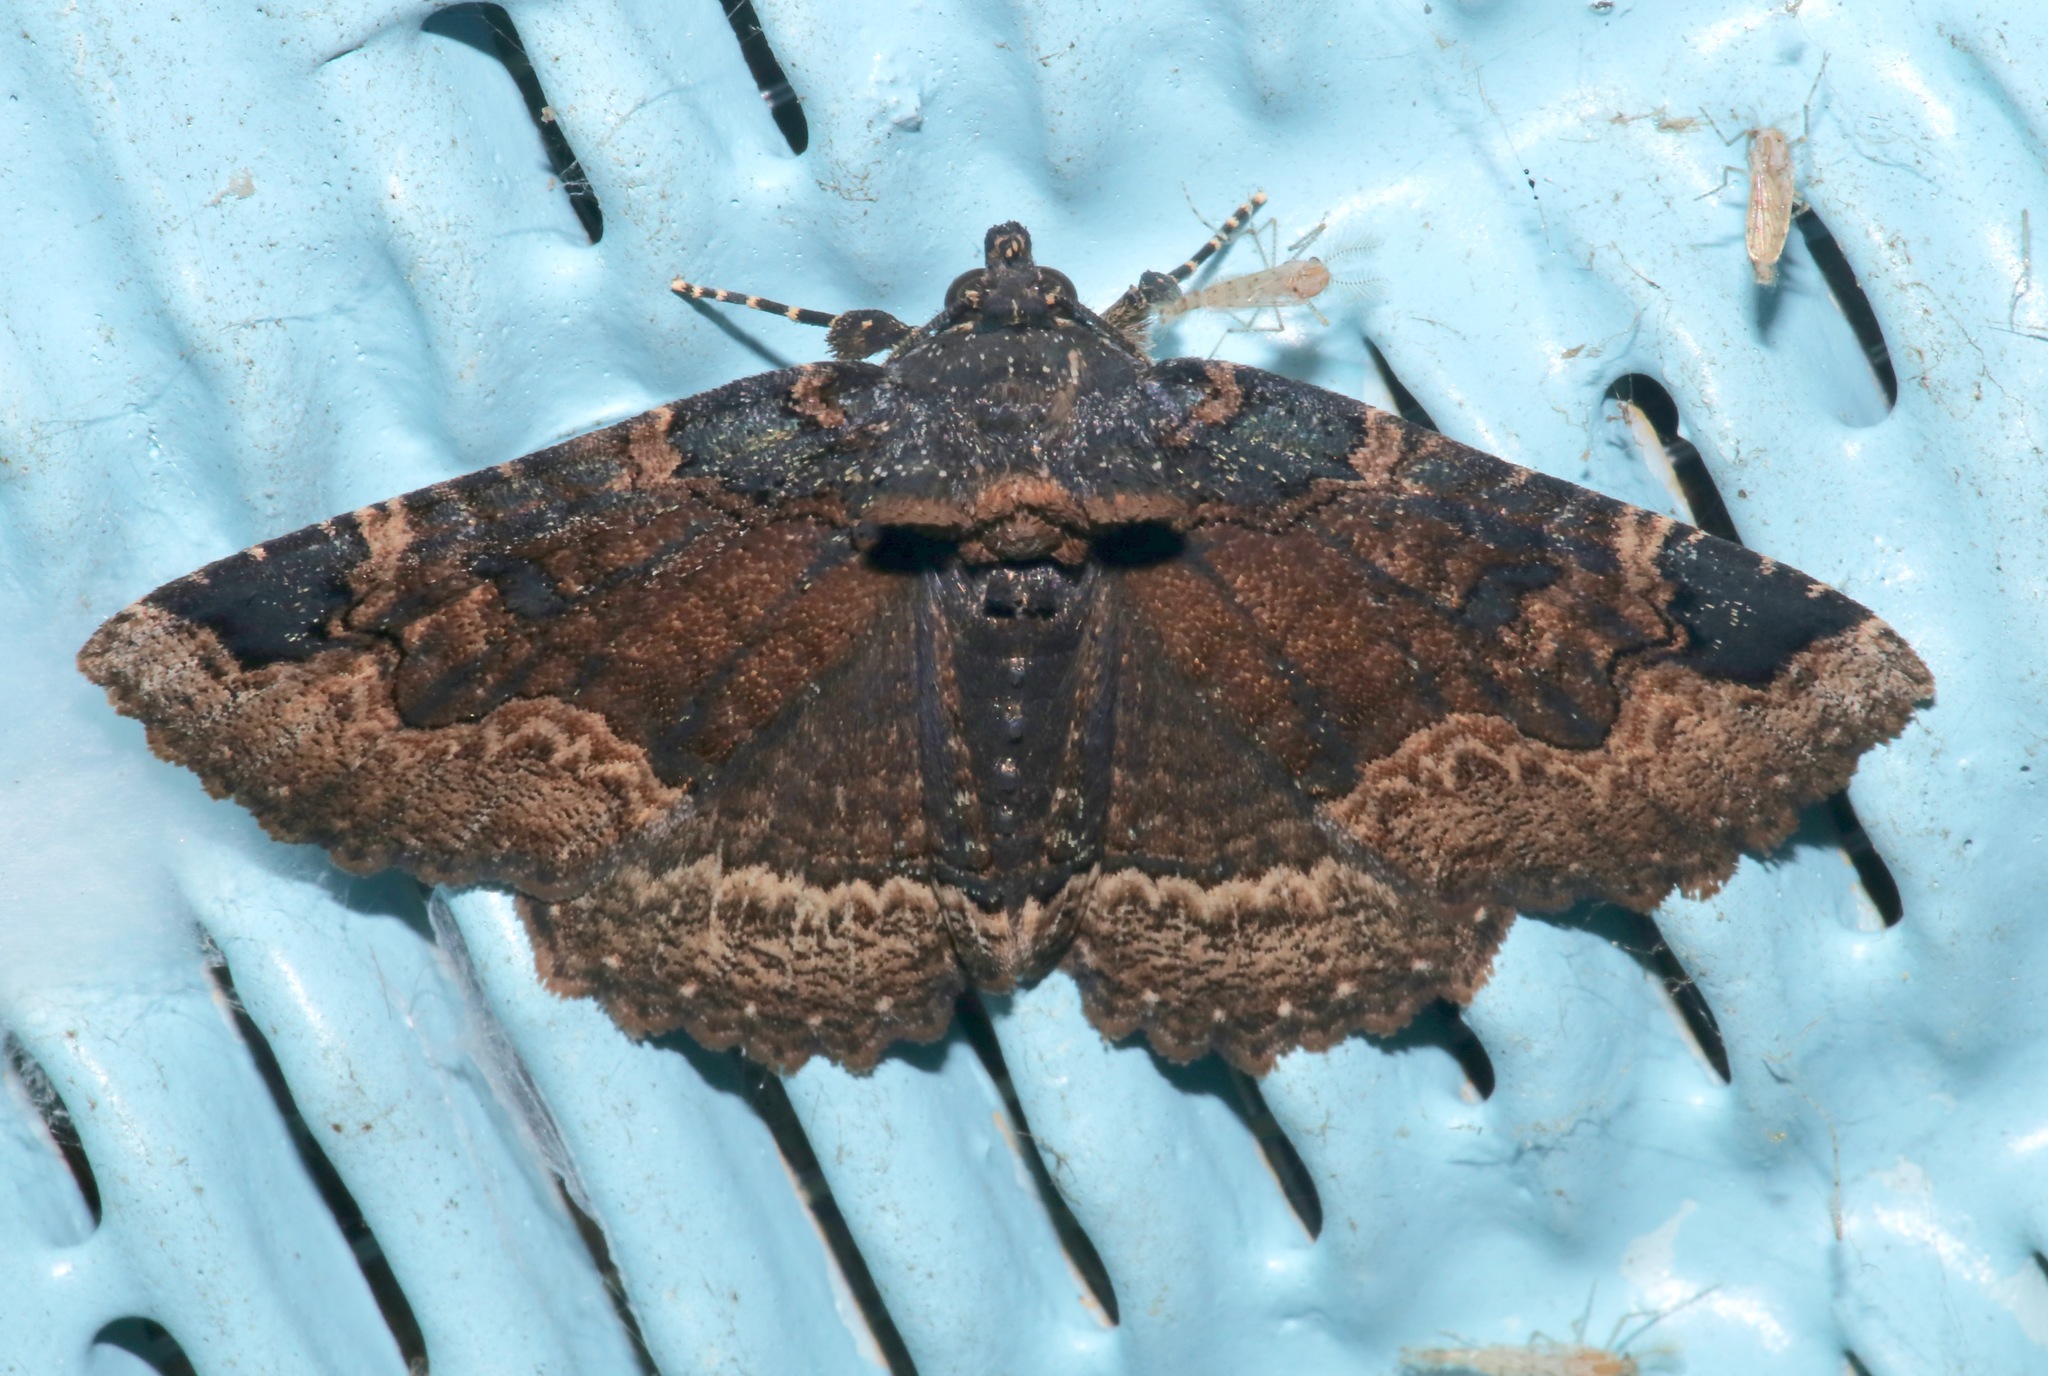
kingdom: Animalia
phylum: Arthropoda
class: Insecta
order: Lepidoptera
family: Erebidae
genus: Zale
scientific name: Zale horrida
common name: Horrid zale moth
